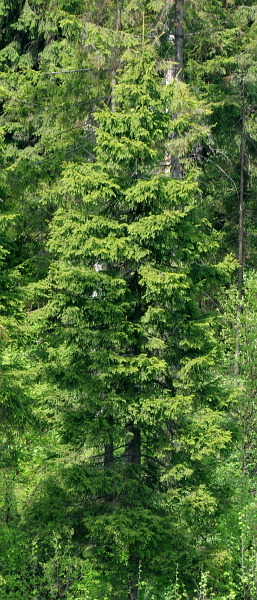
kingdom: Plantae
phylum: Tracheophyta
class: Pinopsida
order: Pinales
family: Pinaceae
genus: Picea
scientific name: Picea abies
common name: Norway spruce
